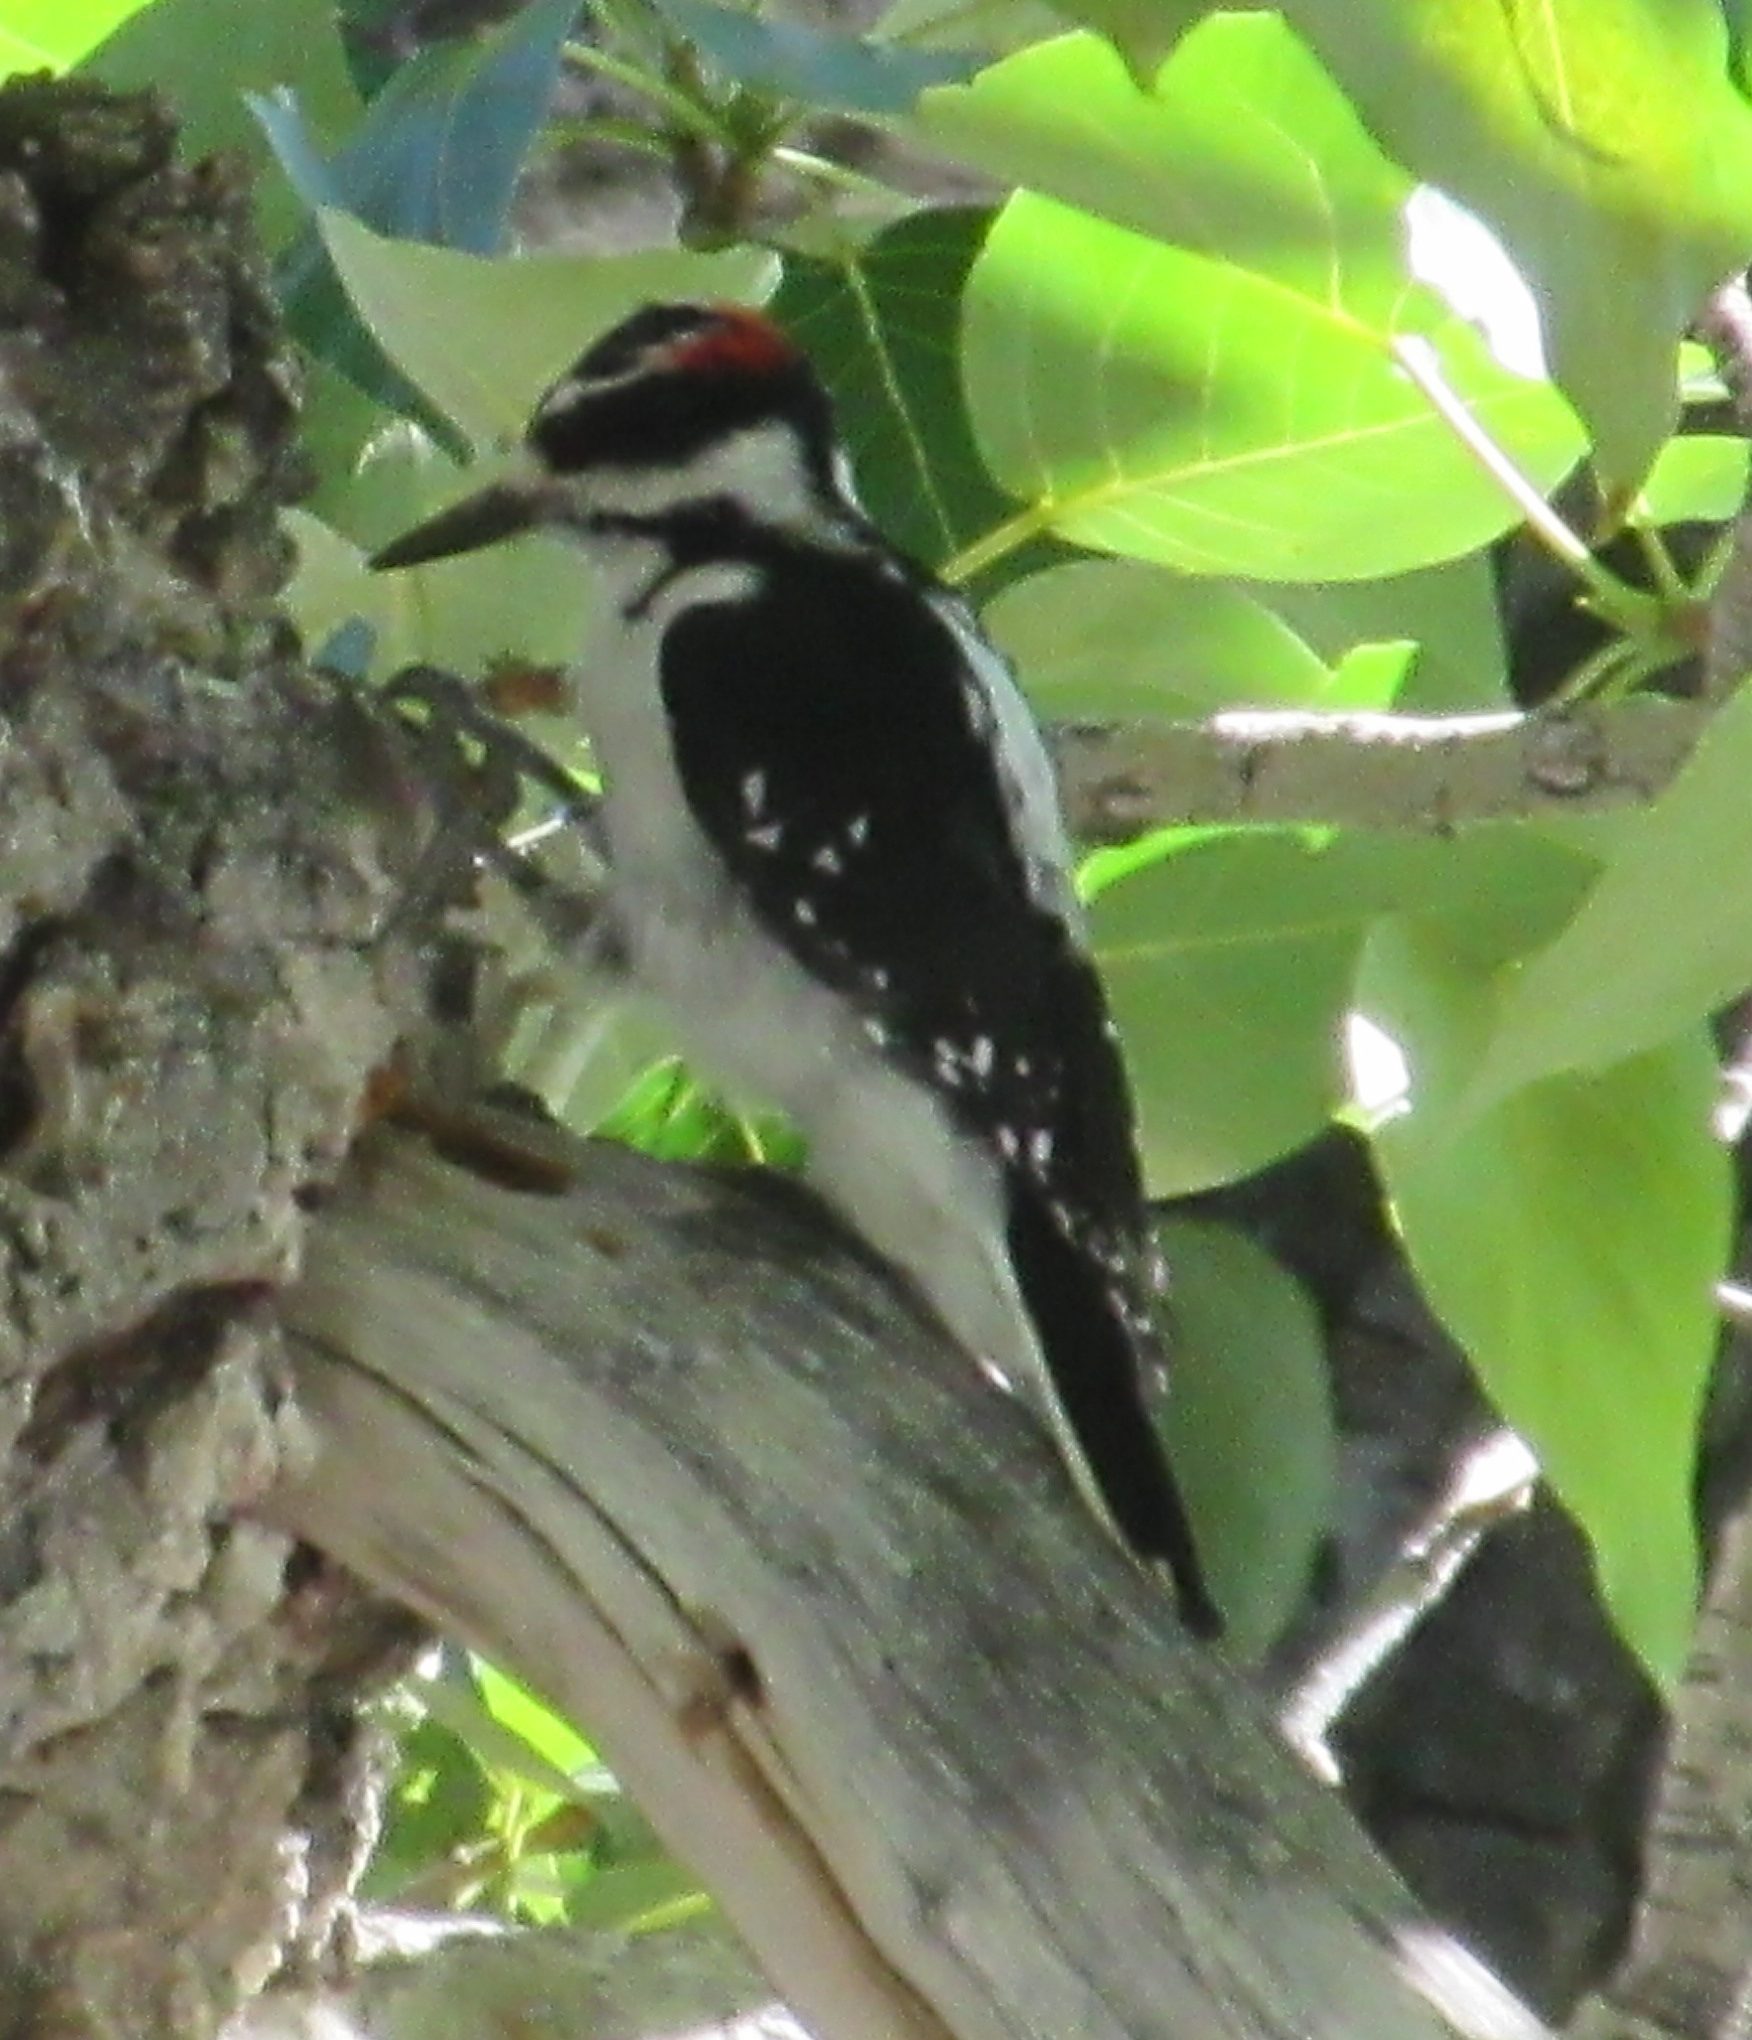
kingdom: Animalia
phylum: Chordata
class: Aves
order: Piciformes
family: Picidae
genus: Leuconotopicus
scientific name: Leuconotopicus villosus
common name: Hairy woodpecker
